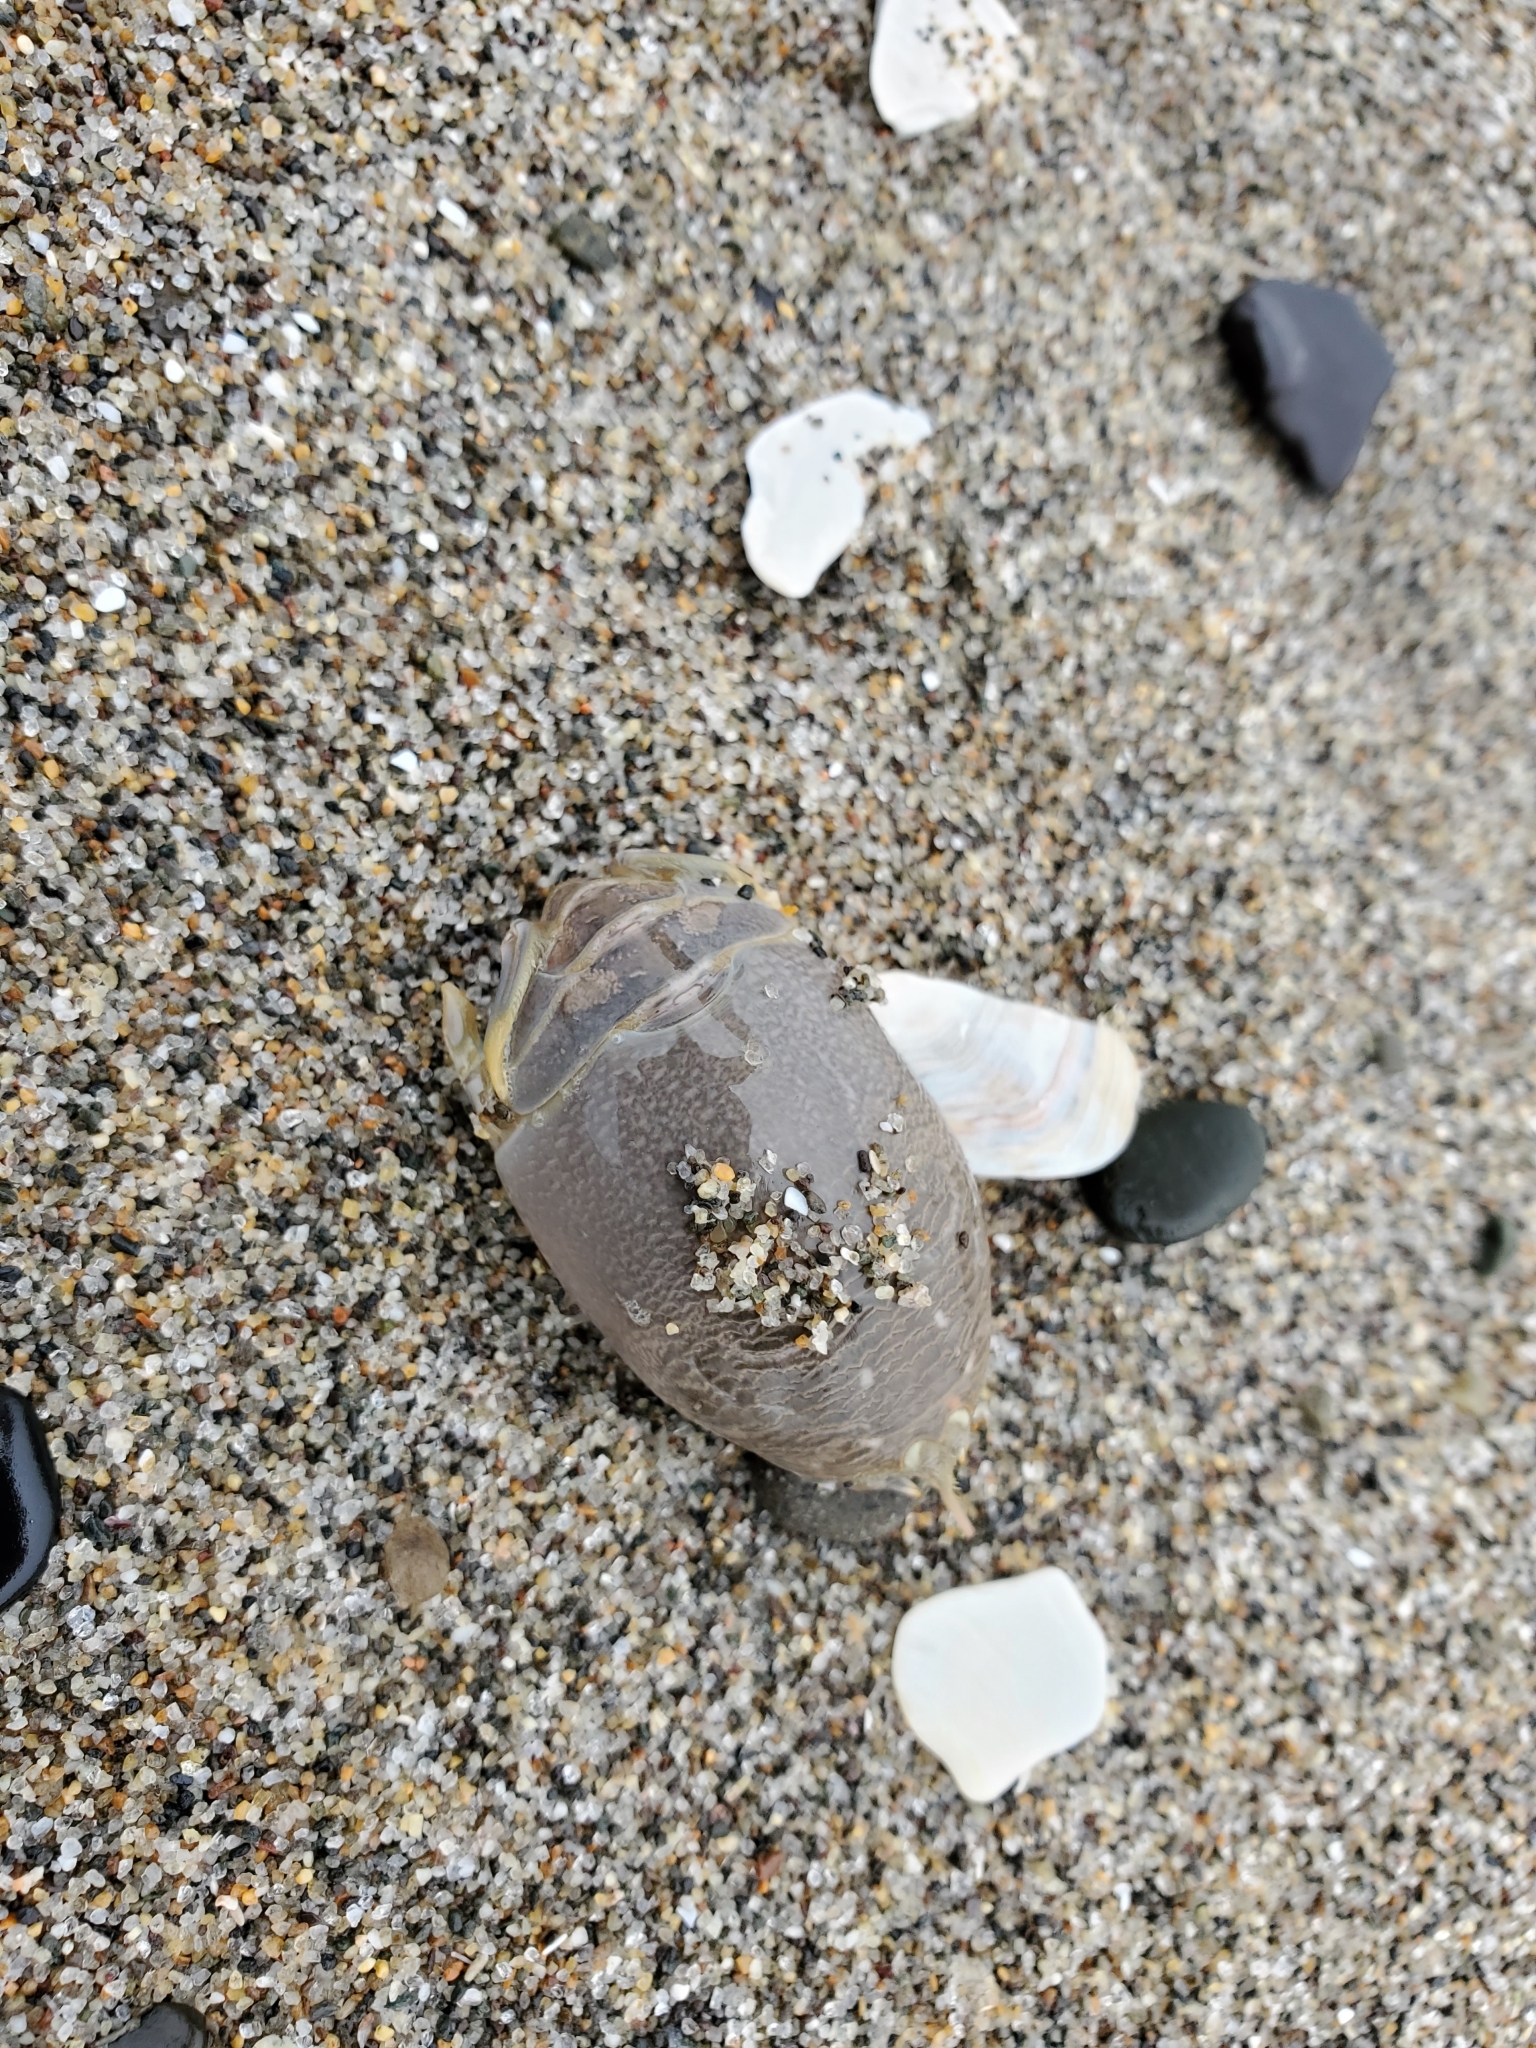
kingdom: Animalia
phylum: Arthropoda
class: Malacostraca
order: Decapoda
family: Hippidae
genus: Emerita
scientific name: Emerita analoga
